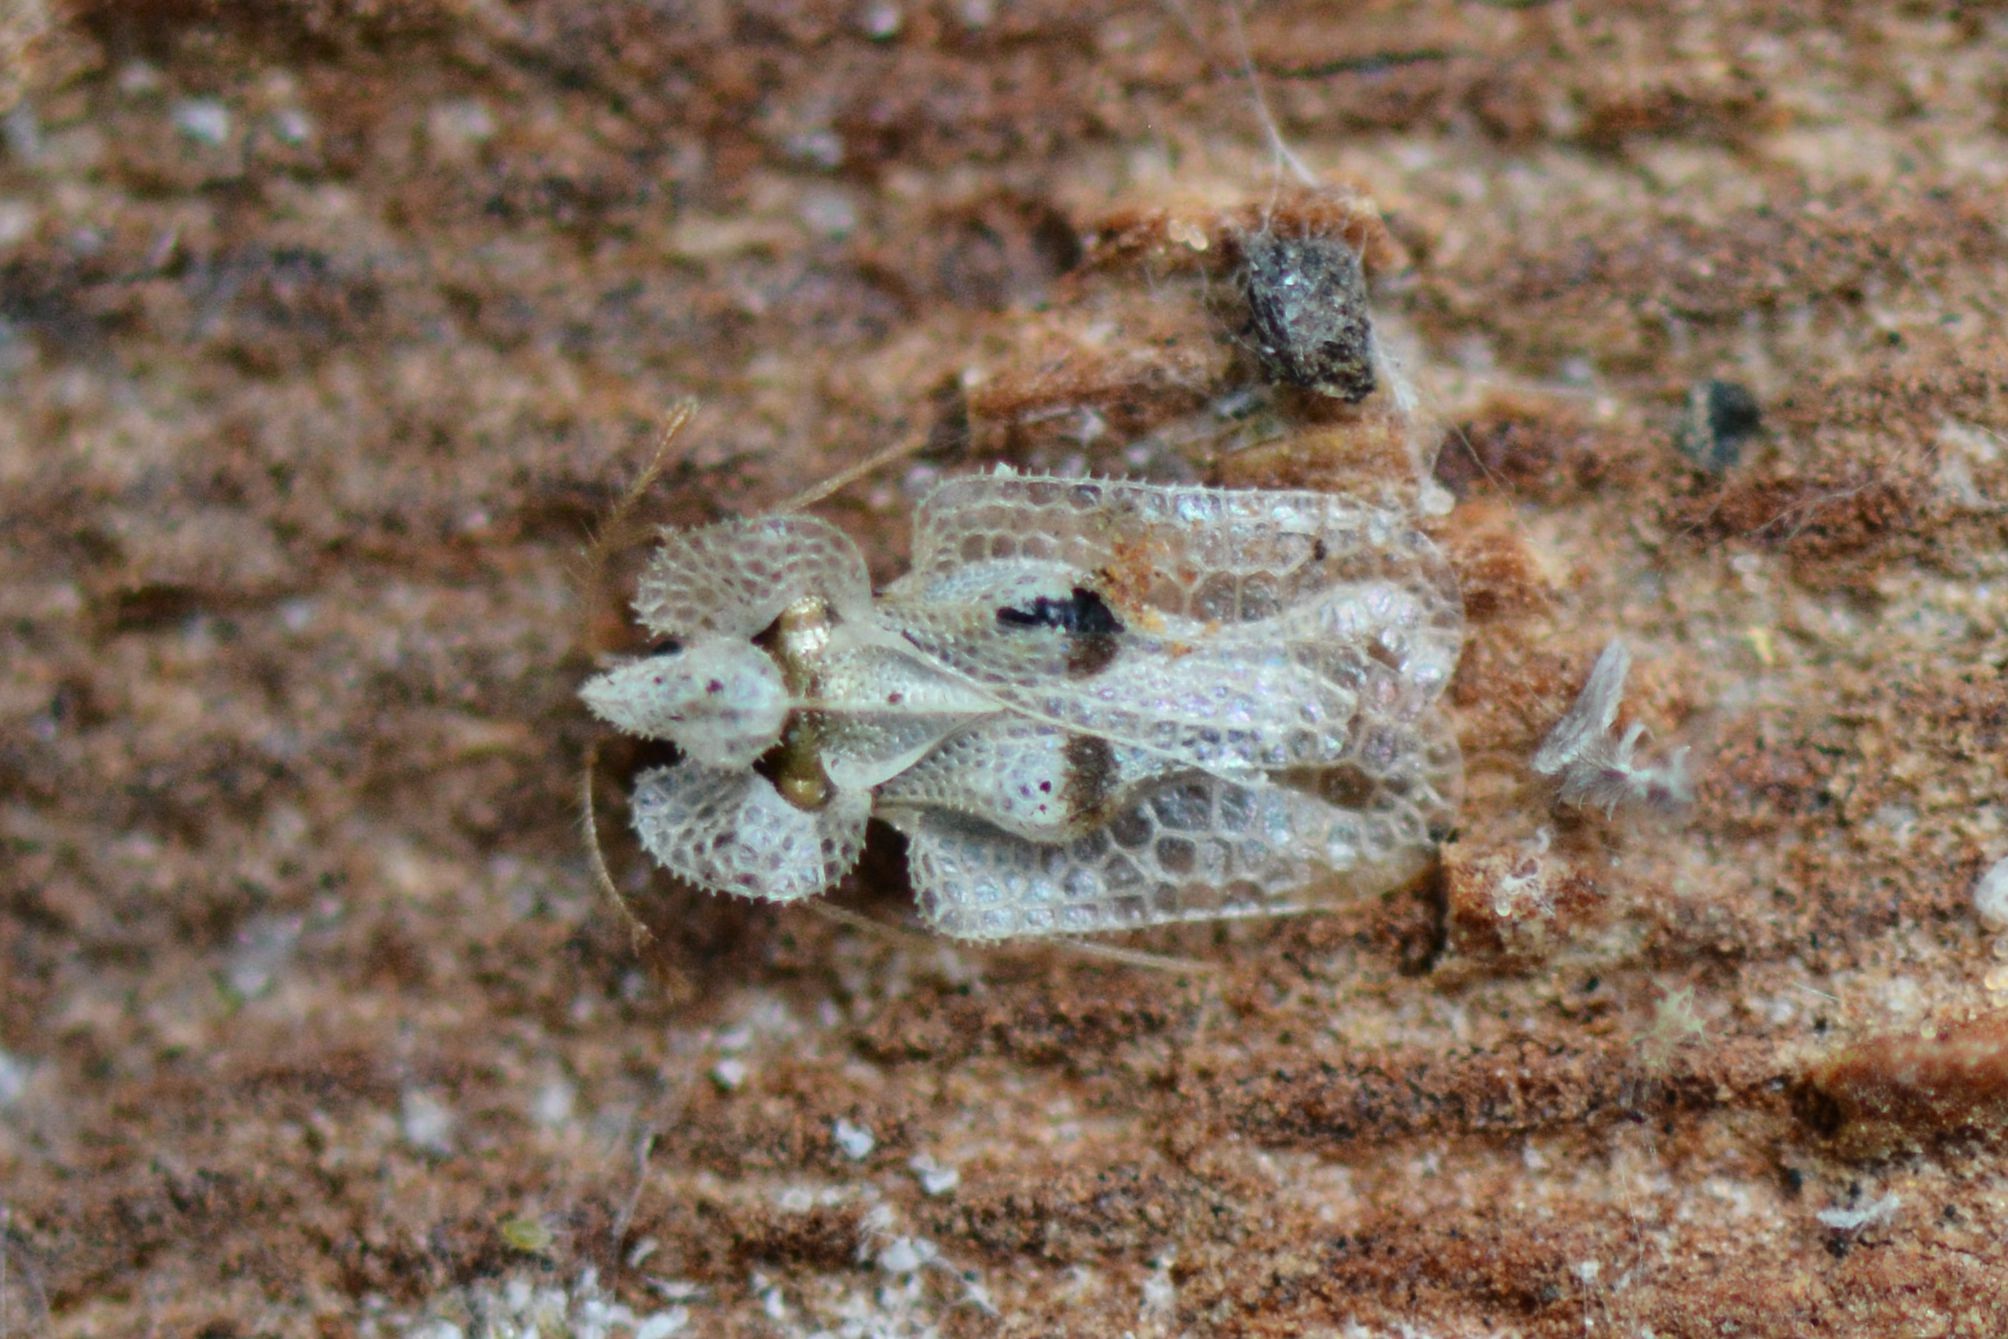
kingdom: Animalia
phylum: Arthropoda
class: Insecta
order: Hemiptera
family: Tingidae
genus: Corythucha
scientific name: Corythucha ciliata
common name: Sycamore lace bug
